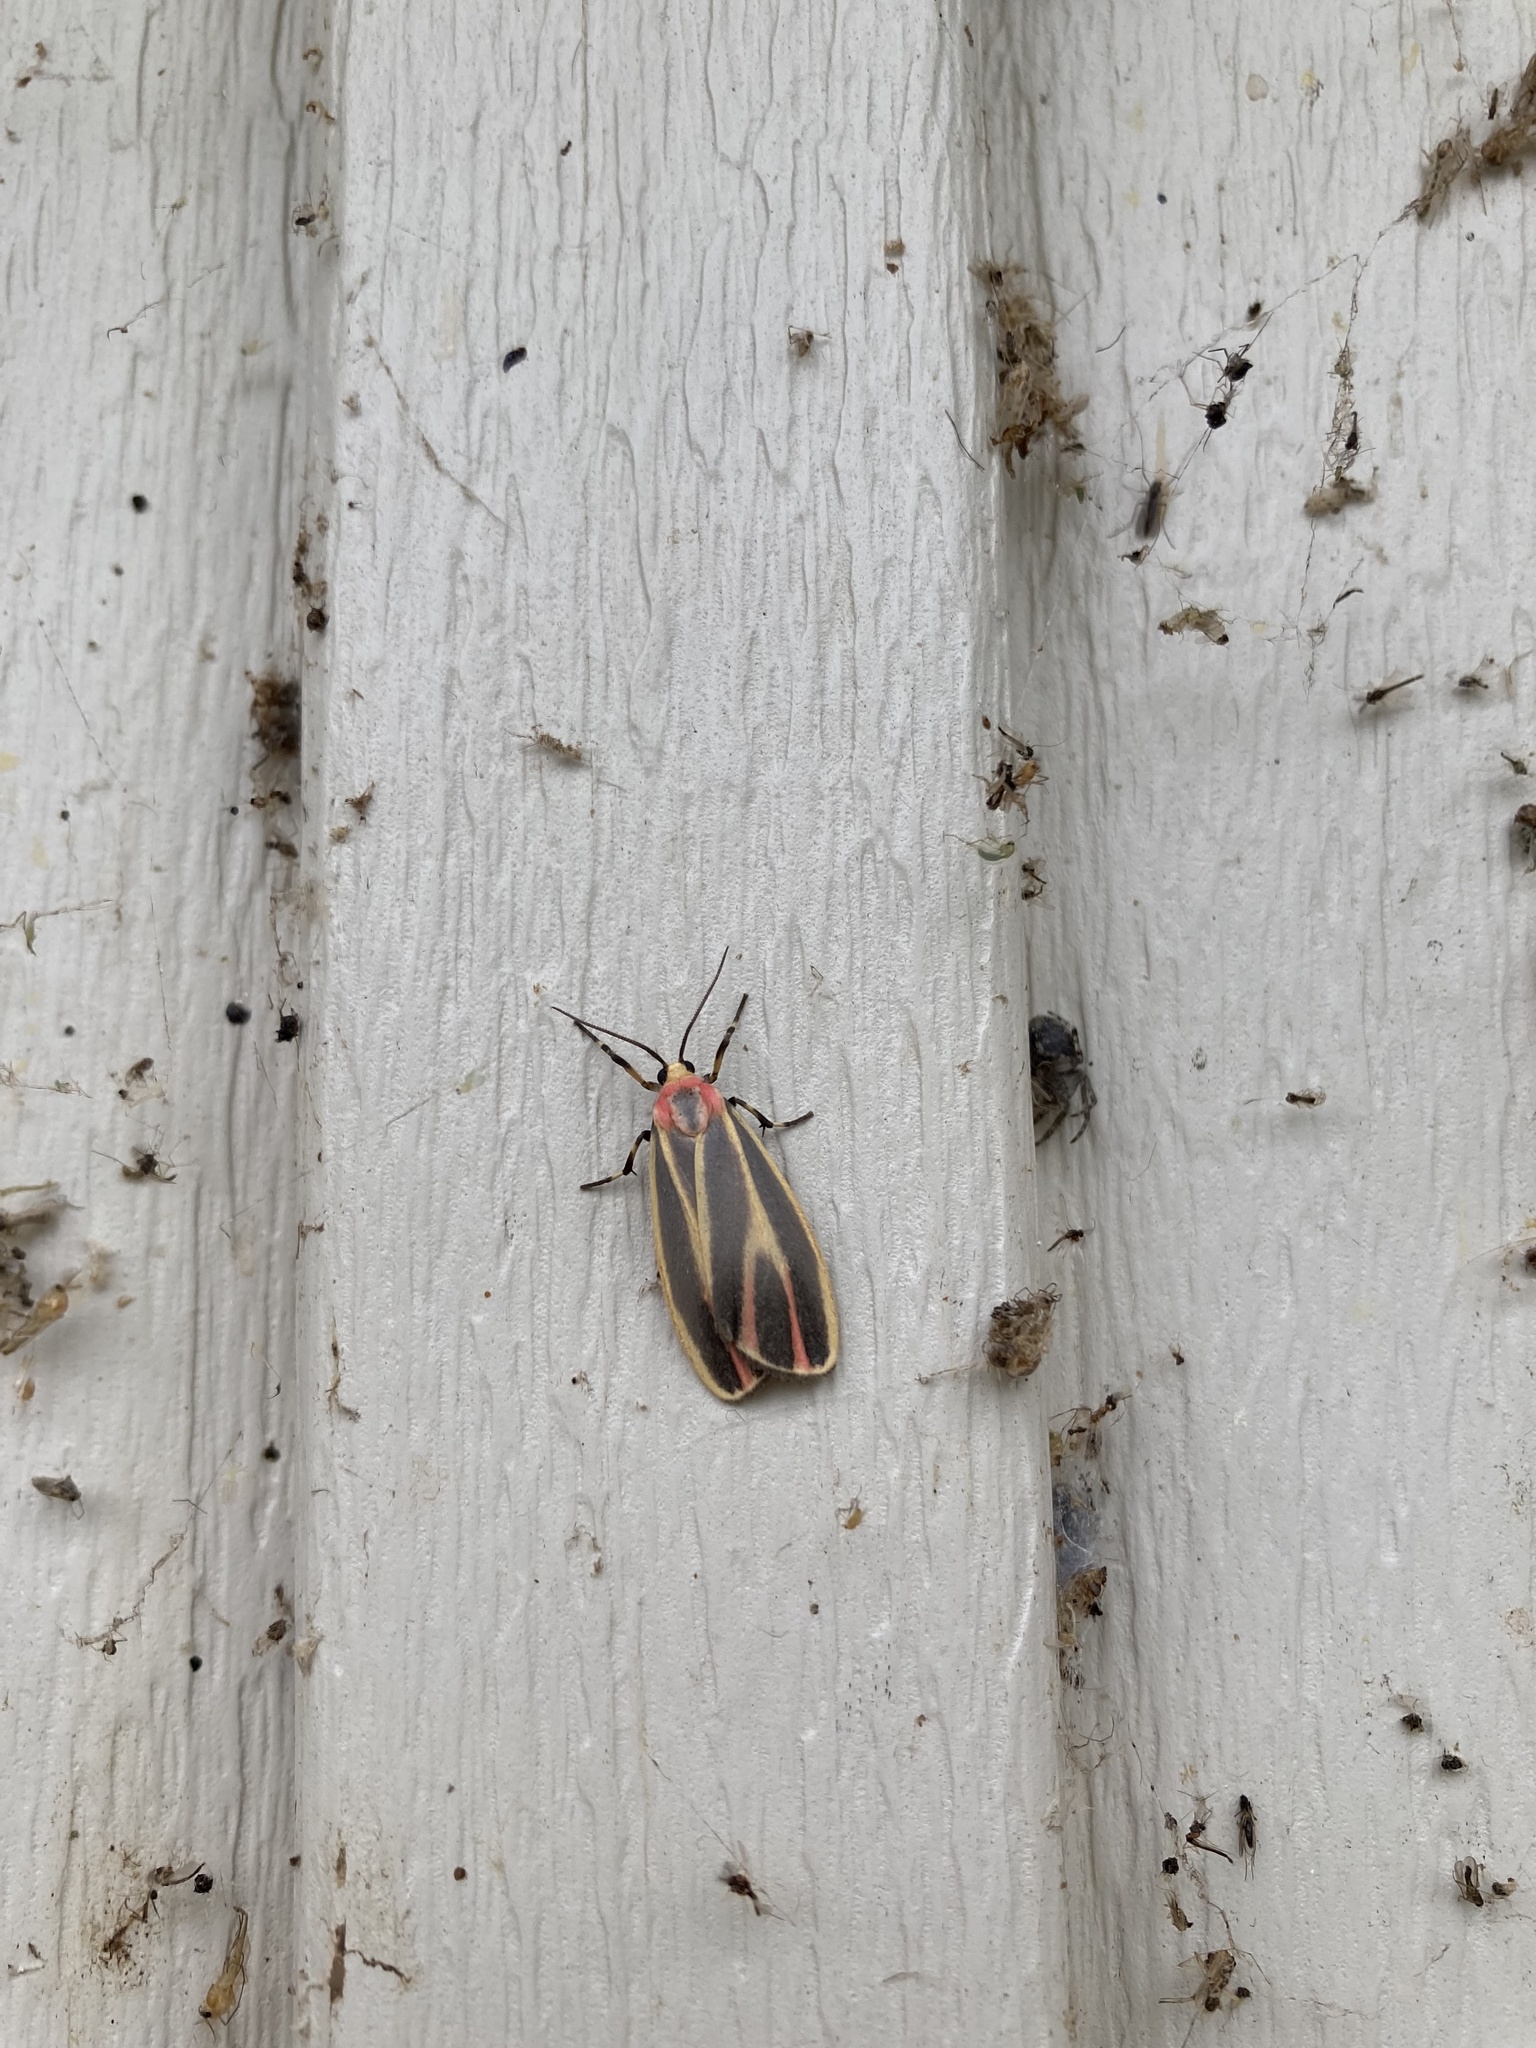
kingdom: Animalia
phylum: Arthropoda
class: Insecta
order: Lepidoptera
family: Erebidae
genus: Hypoprepia
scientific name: Hypoprepia fucosa
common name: Painted lichen moth
